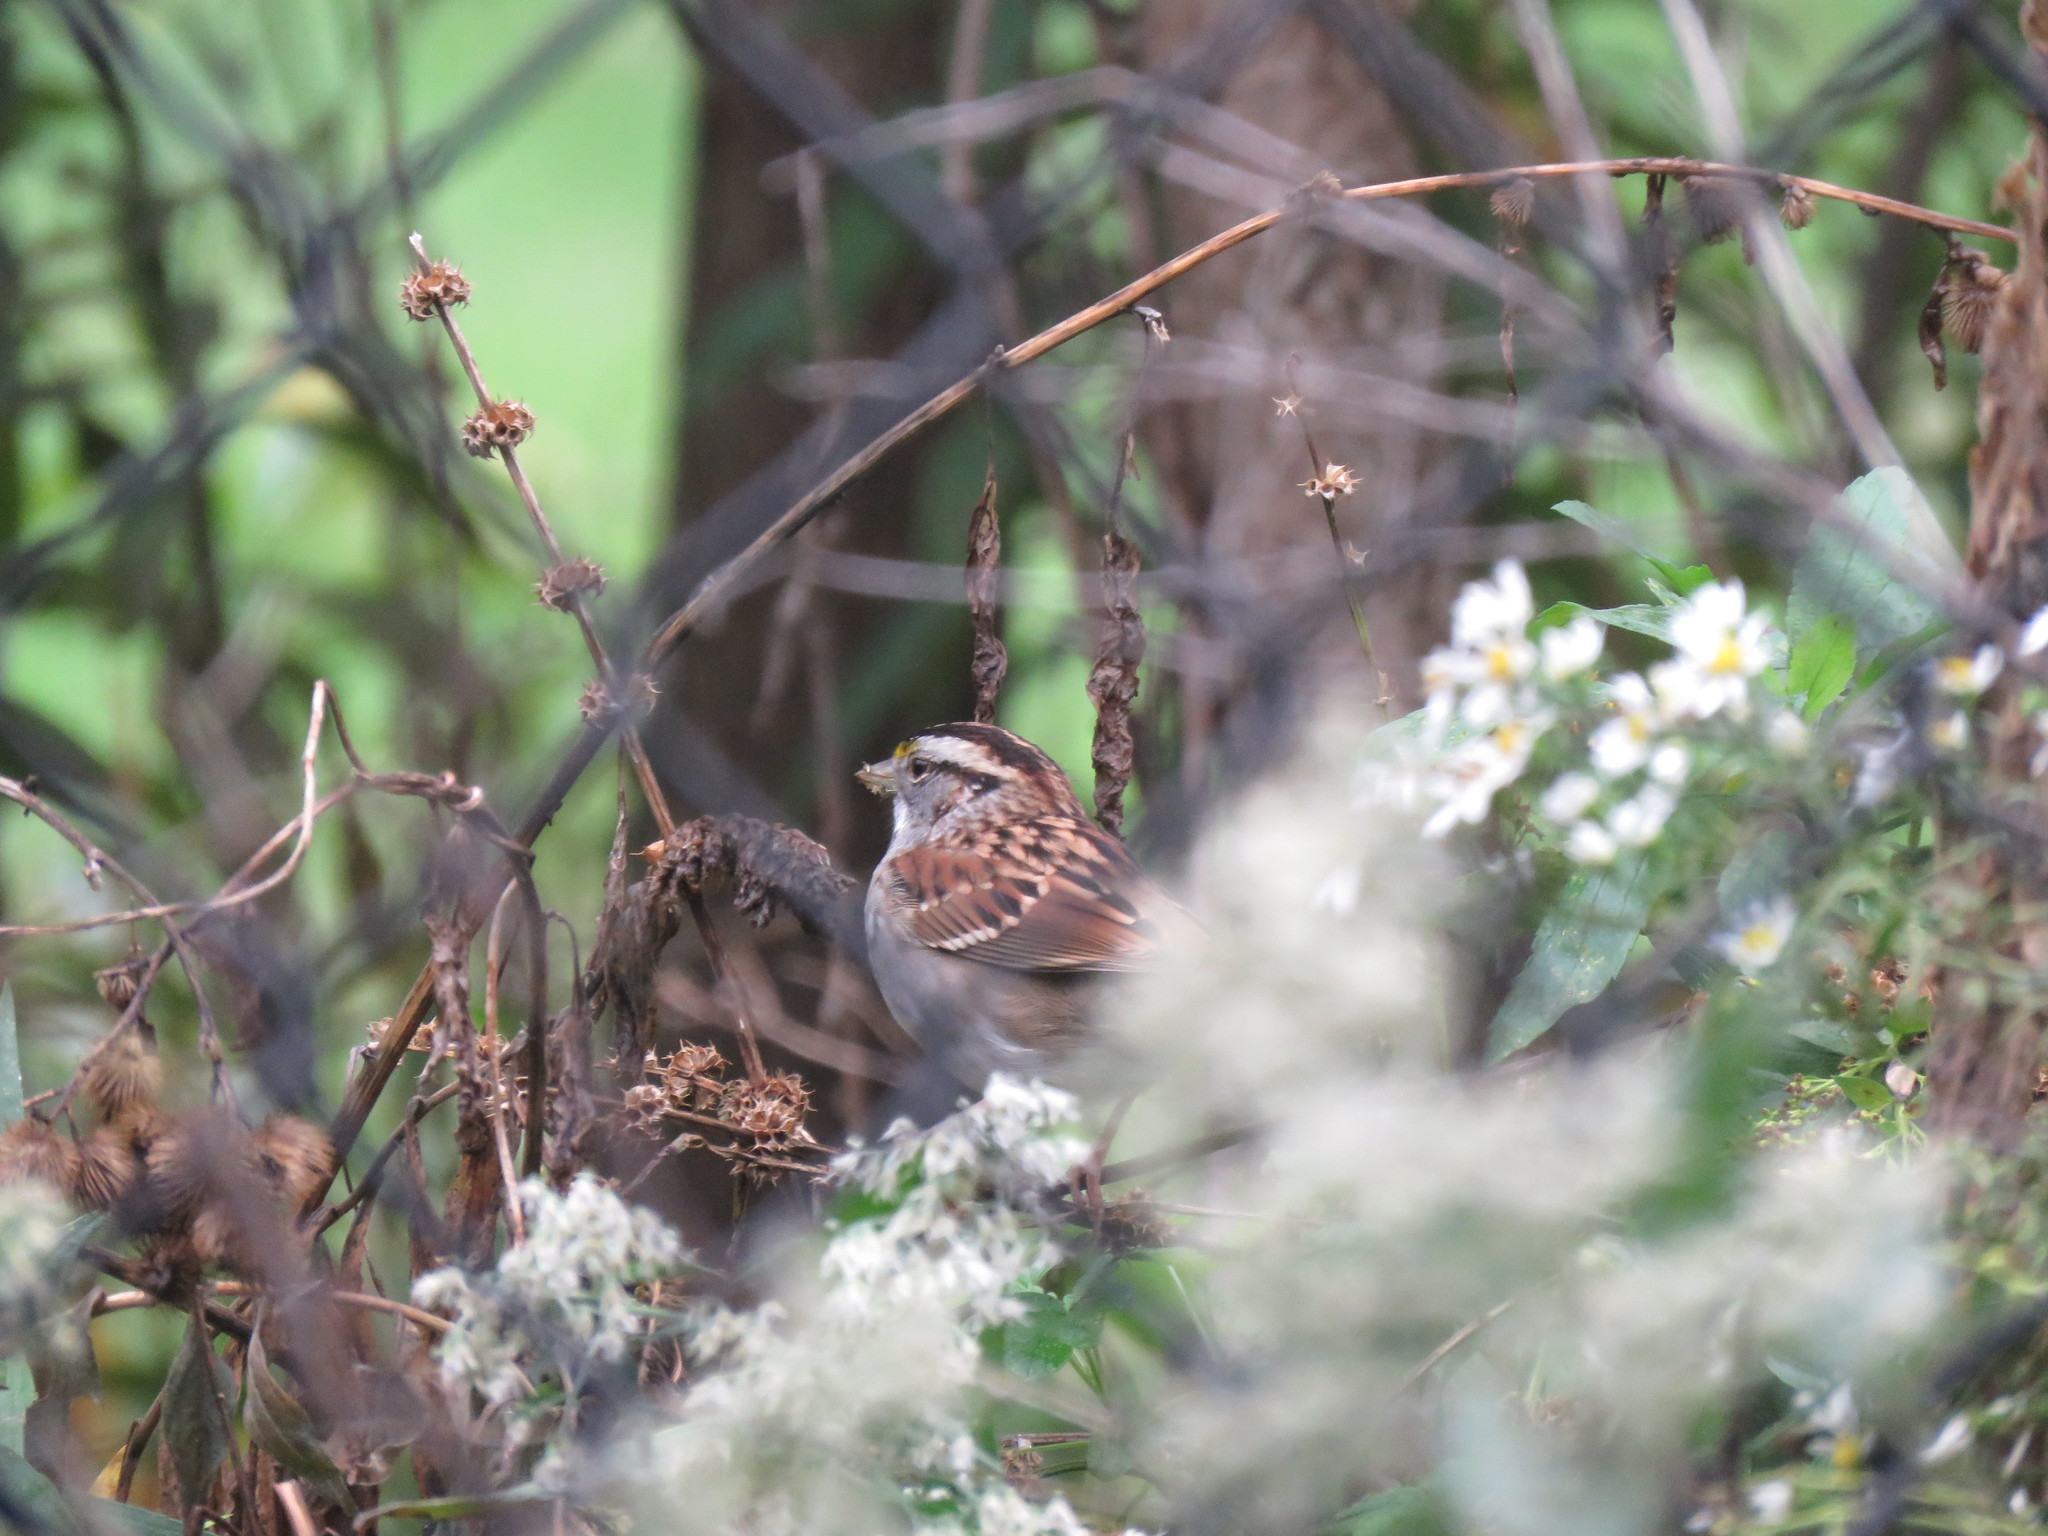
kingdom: Animalia
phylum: Chordata
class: Aves
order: Passeriformes
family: Passerellidae
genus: Zonotrichia
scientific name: Zonotrichia albicollis
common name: White-throated sparrow
